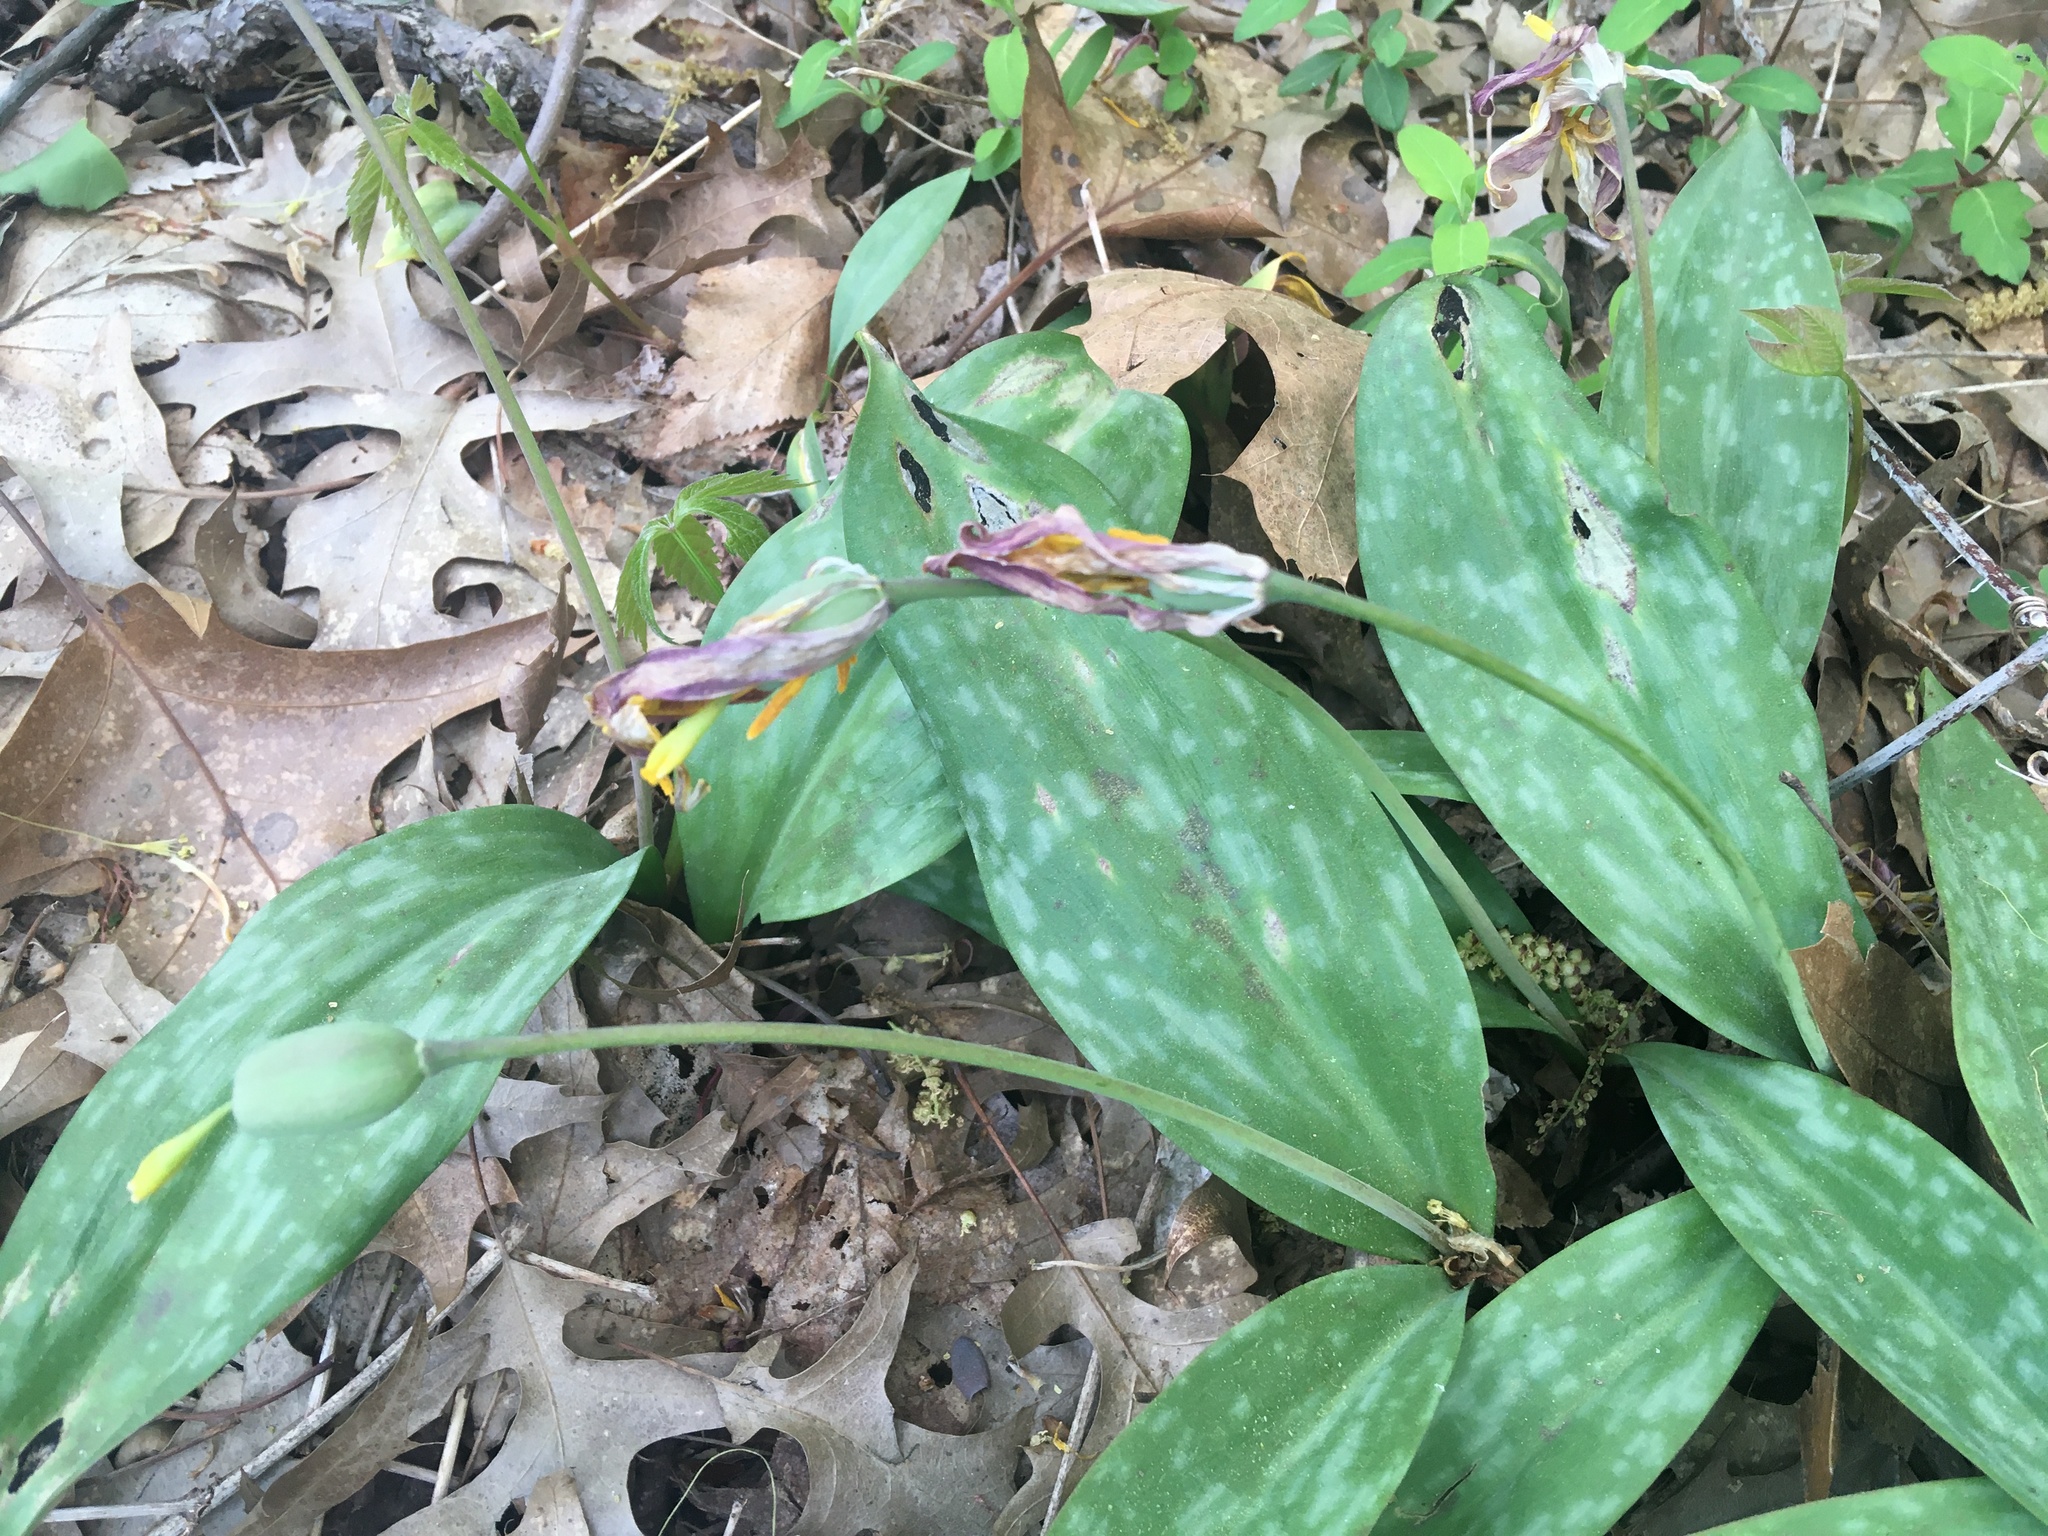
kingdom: Plantae
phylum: Tracheophyta
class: Liliopsida
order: Liliales
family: Liliaceae
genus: Erythronium
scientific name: Erythronium americanum
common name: Yellow adder's-tongue
